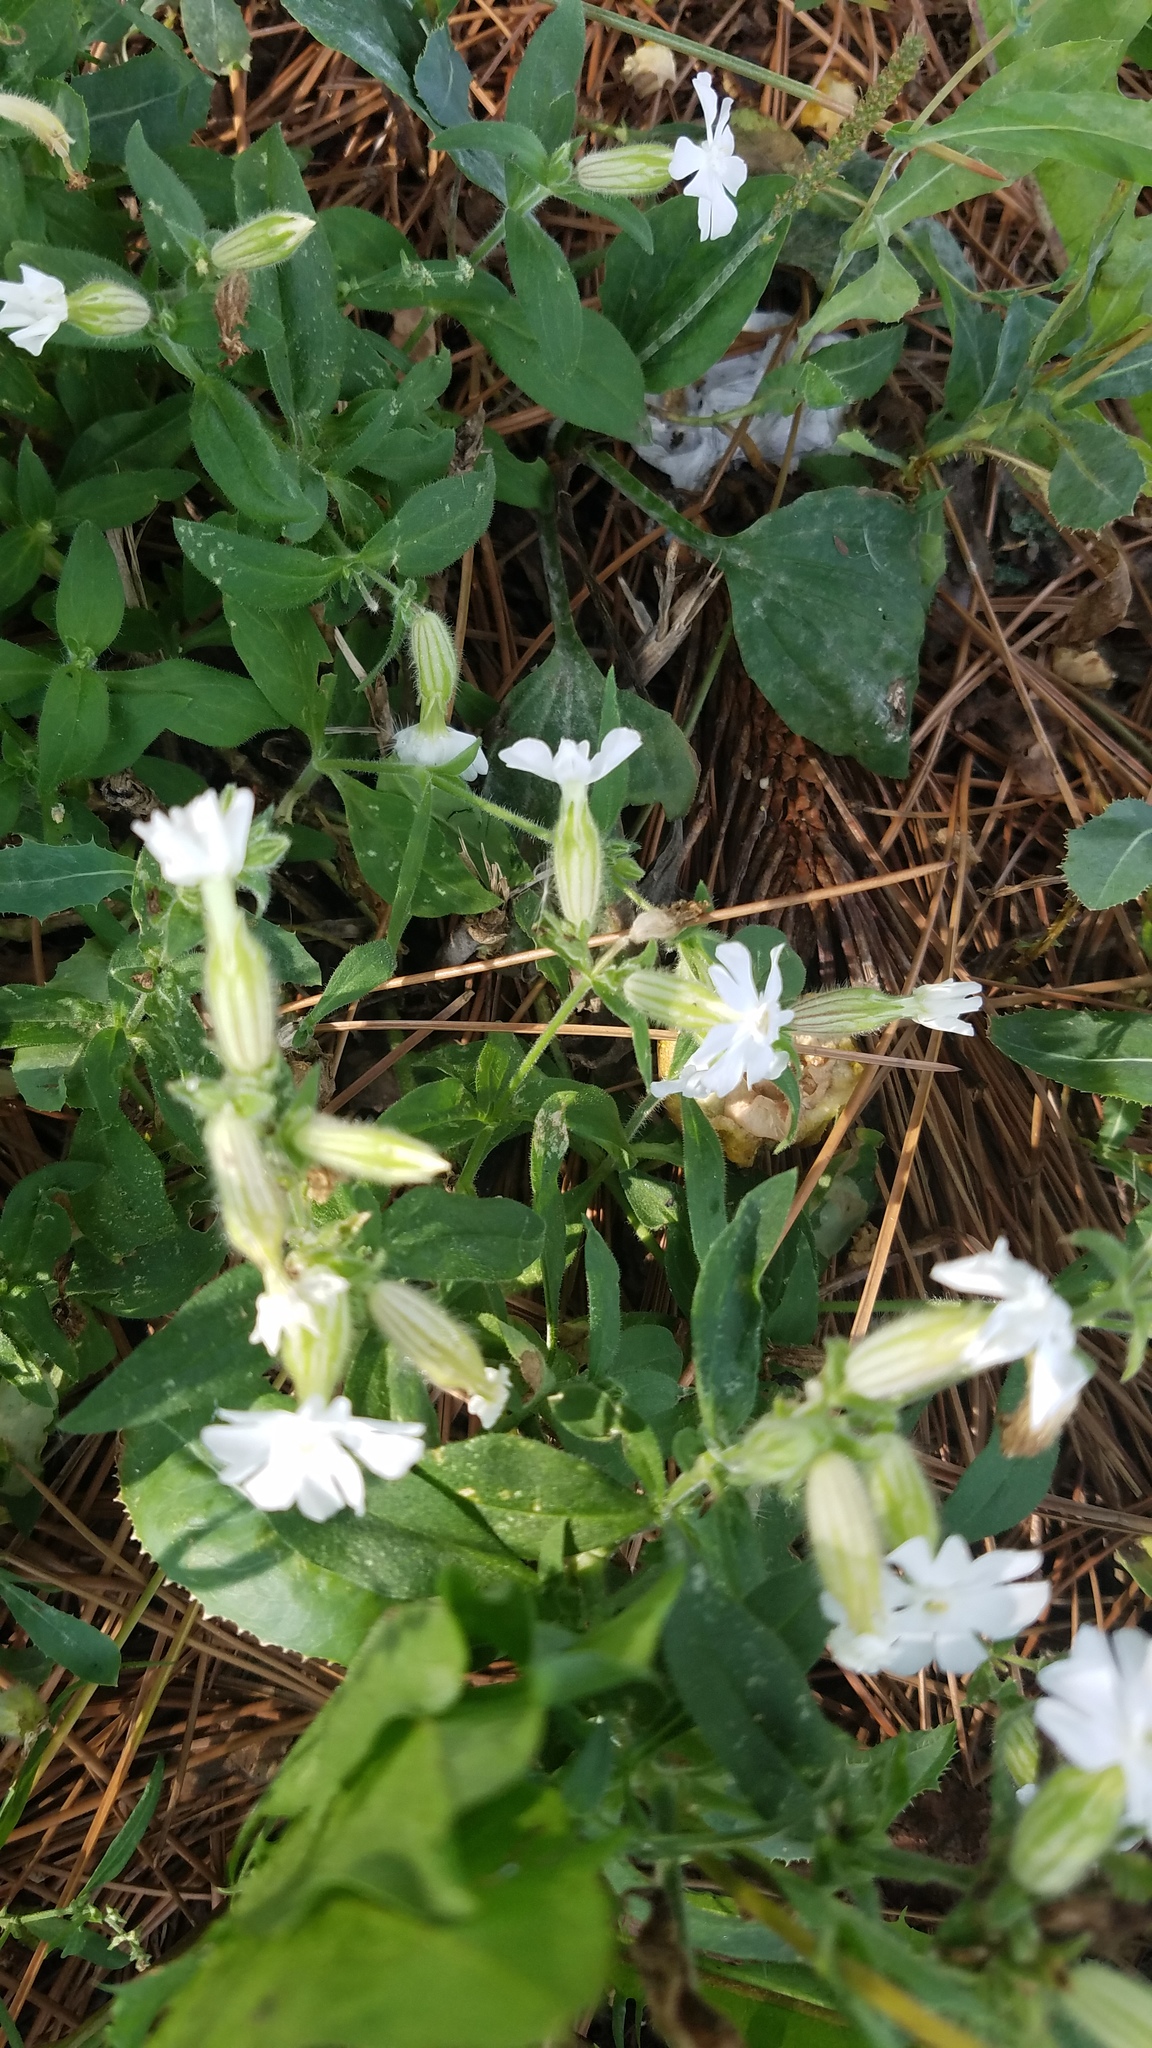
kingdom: Plantae
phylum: Tracheophyta
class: Magnoliopsida
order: Caryophyllales
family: Caryophyllaceae
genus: Silene
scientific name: Silene latifolia
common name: White campion
